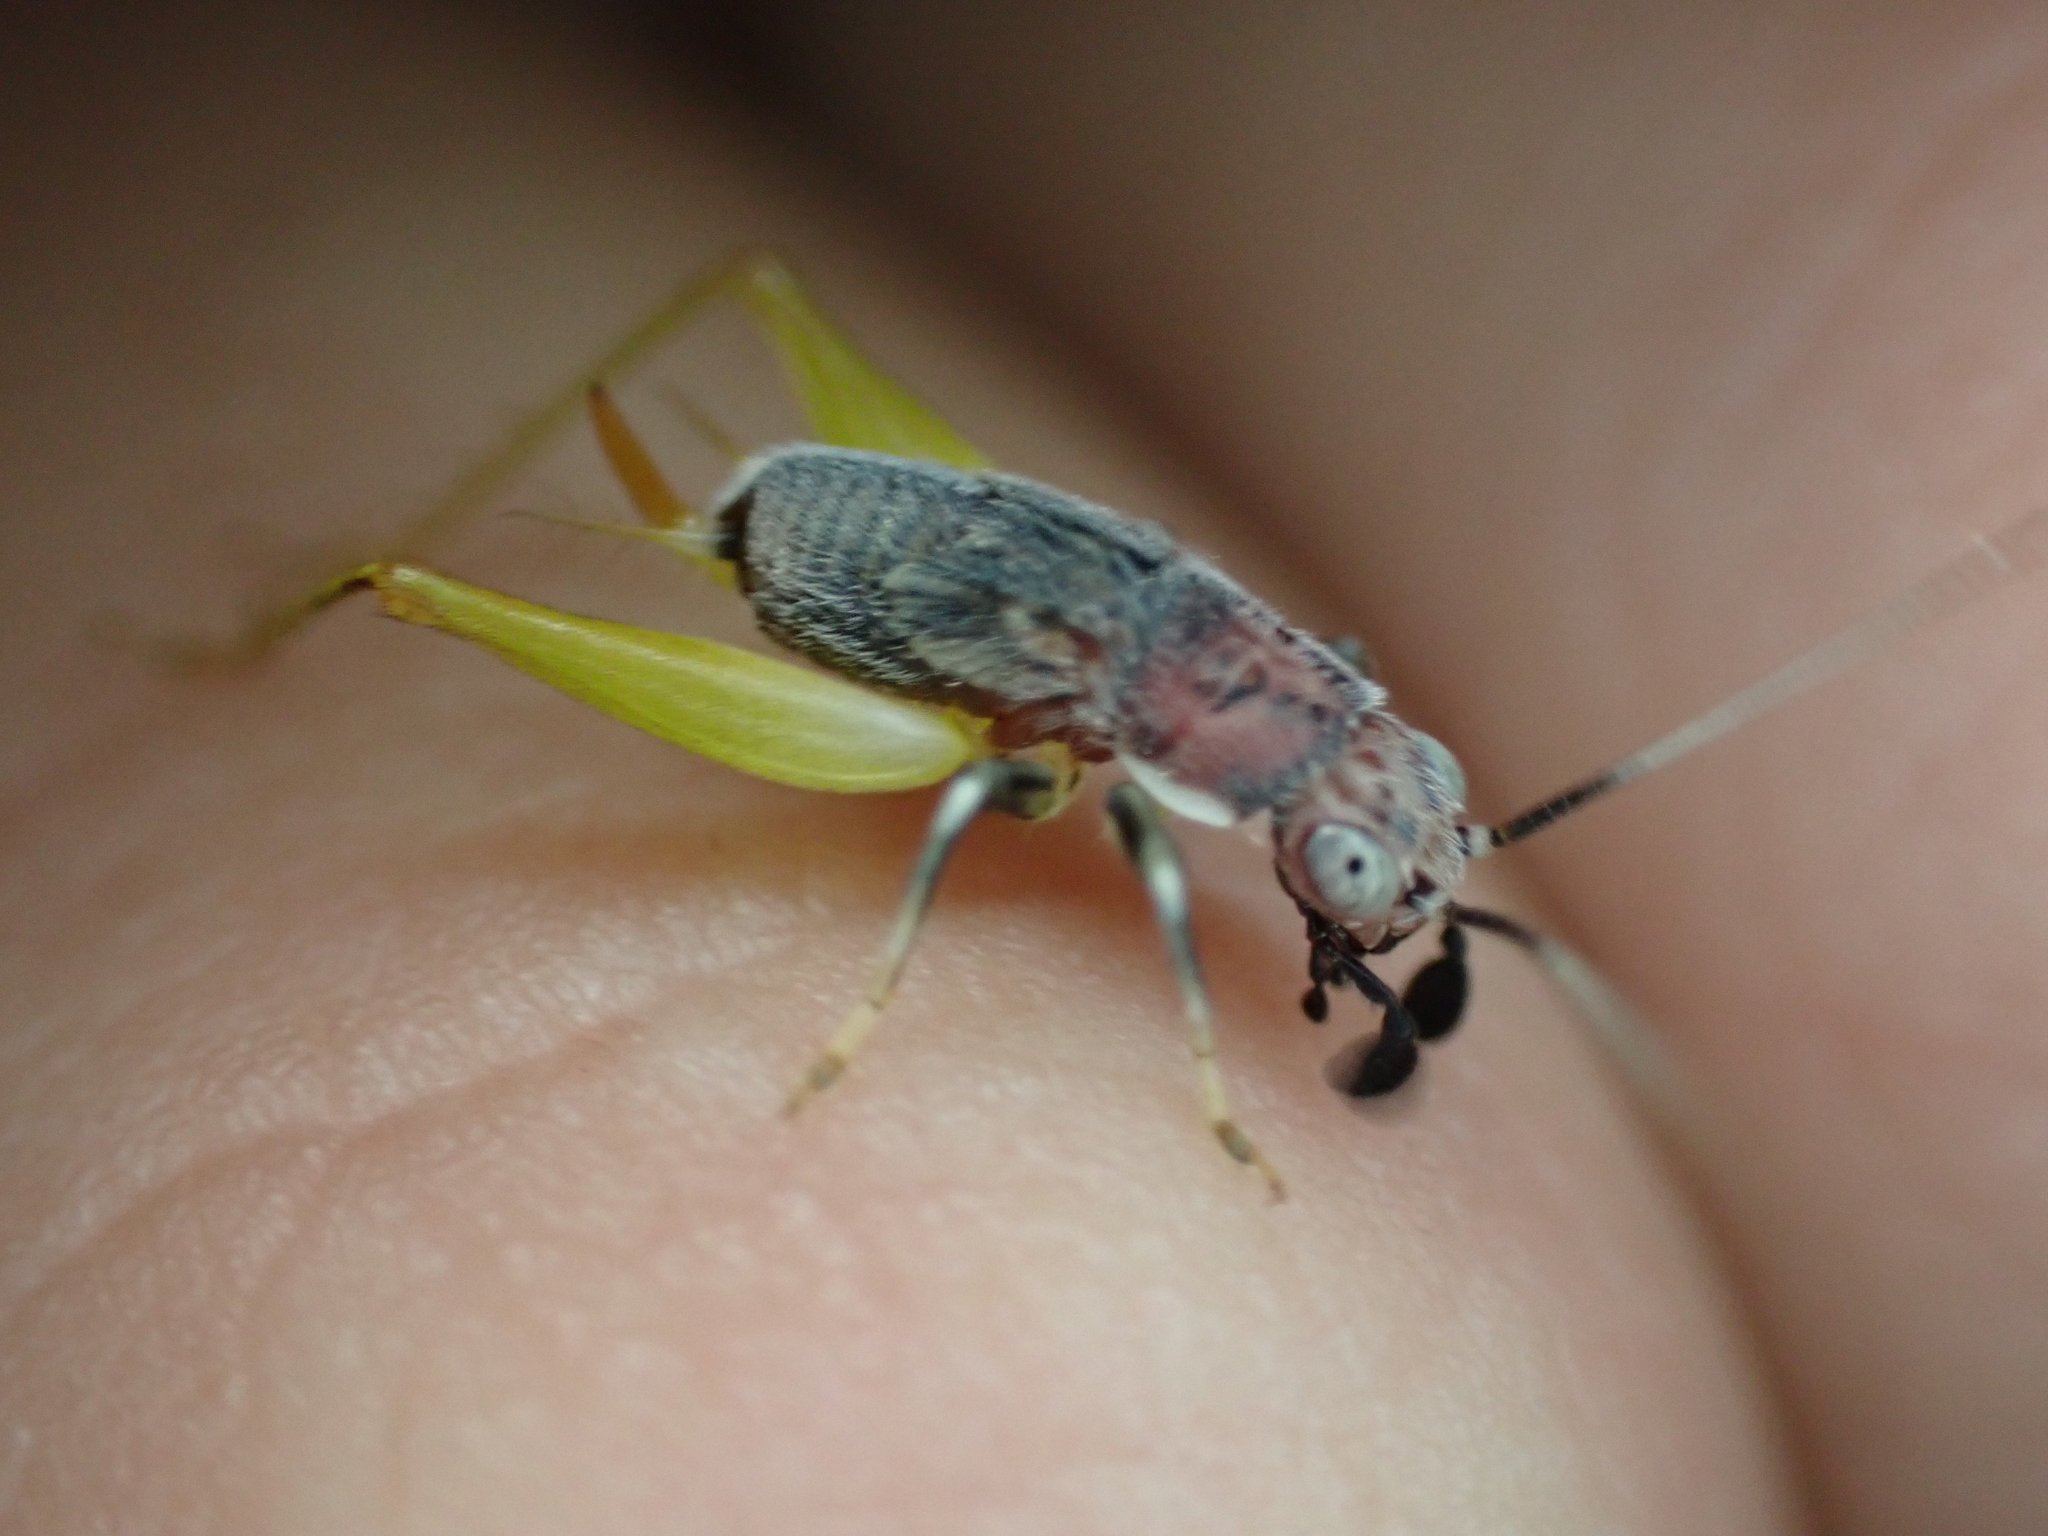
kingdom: Animalia
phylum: Arthropoda
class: Insecta
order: Orthoptera
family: Trigonidiidae
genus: Phyllopalpus
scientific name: Phyllopalpus pulchellus
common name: Handsome trig
